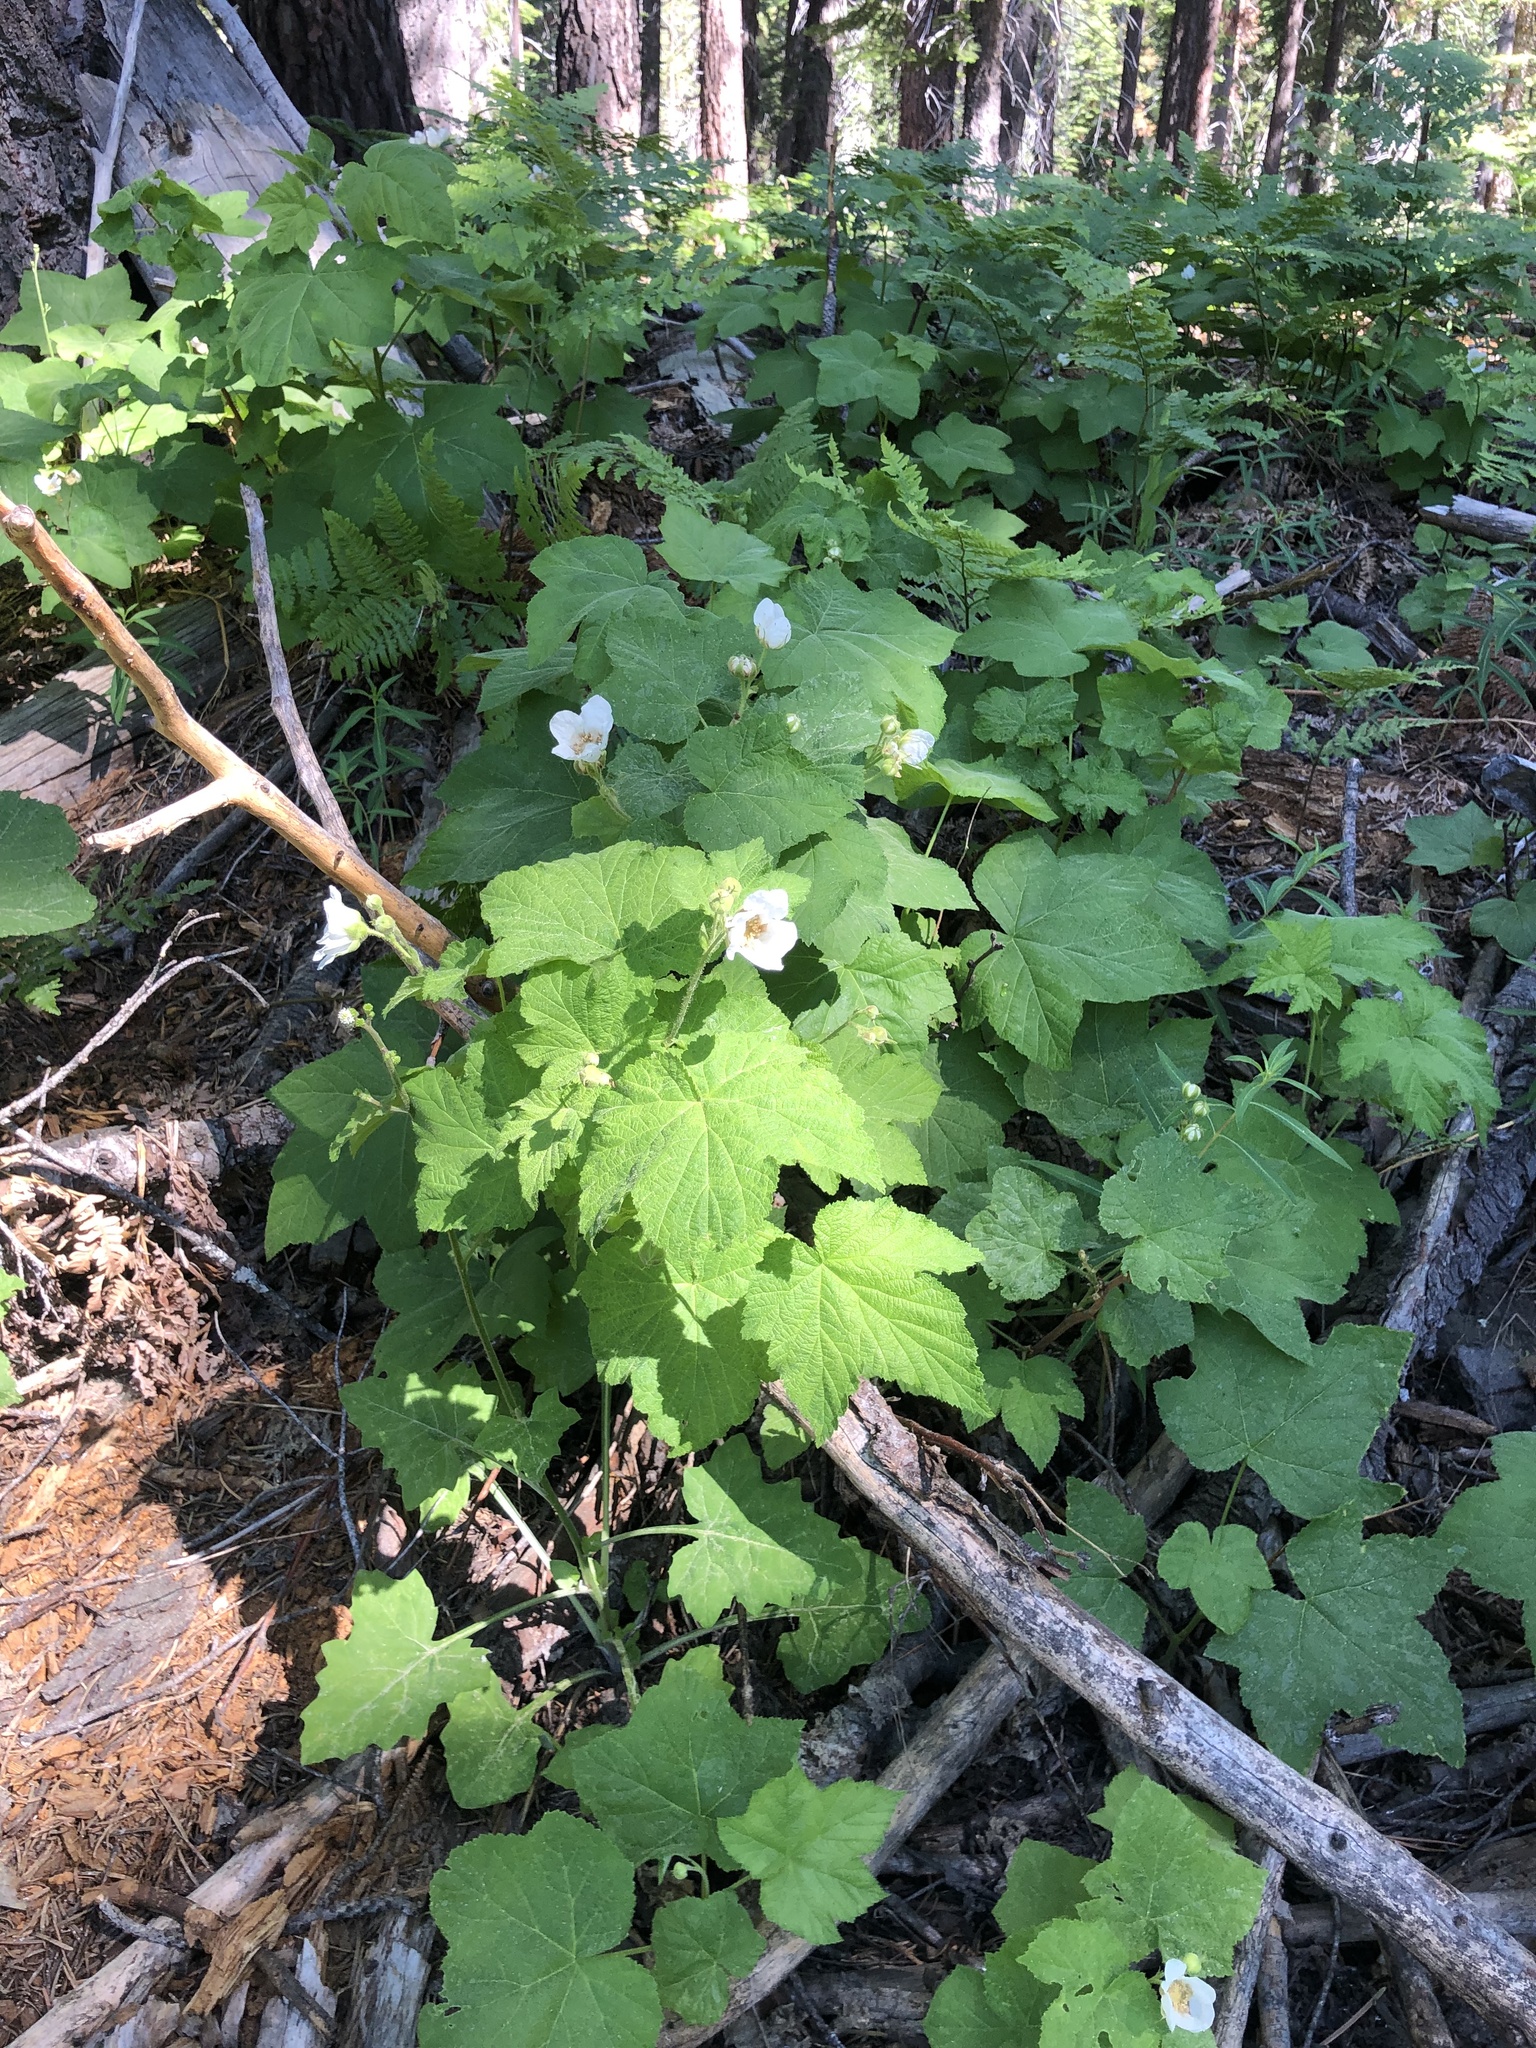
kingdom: Plantae
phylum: Tracheophyta
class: Magnoliopsida
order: Rosales
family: Rosaceae
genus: Rubus
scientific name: Rubus parviflorus
